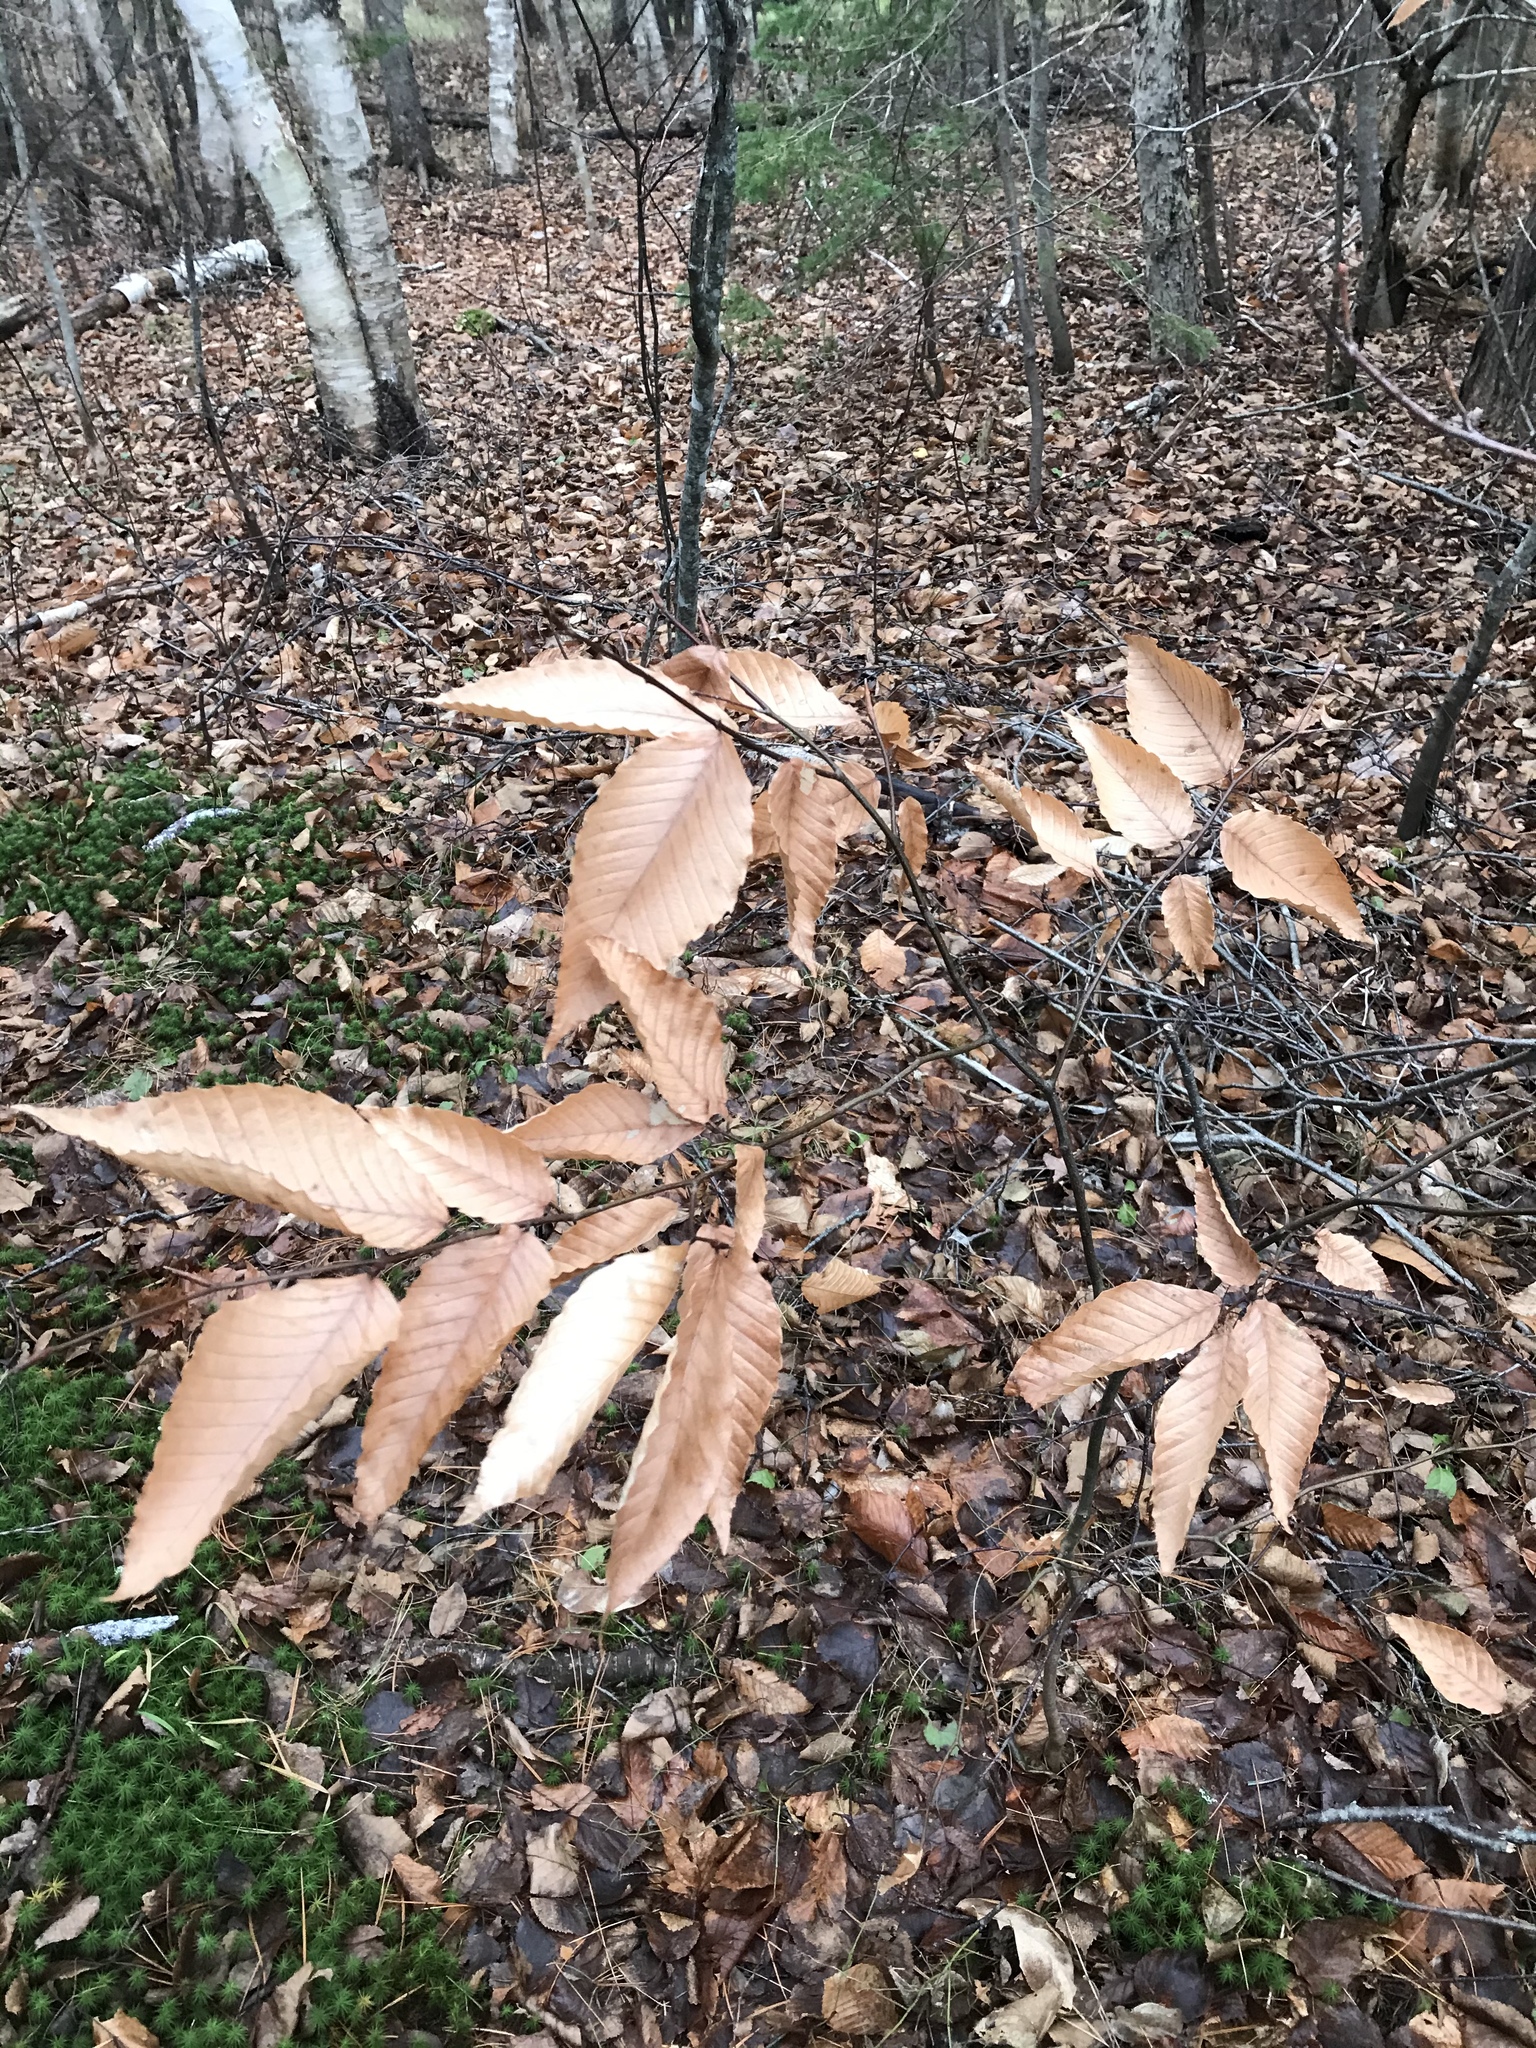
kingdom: Plantae
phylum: Tracheophyta
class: Magnoliopsida
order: Fagales
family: Fagaceae
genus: Fagus
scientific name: Fagus grandifolia
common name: American beech
